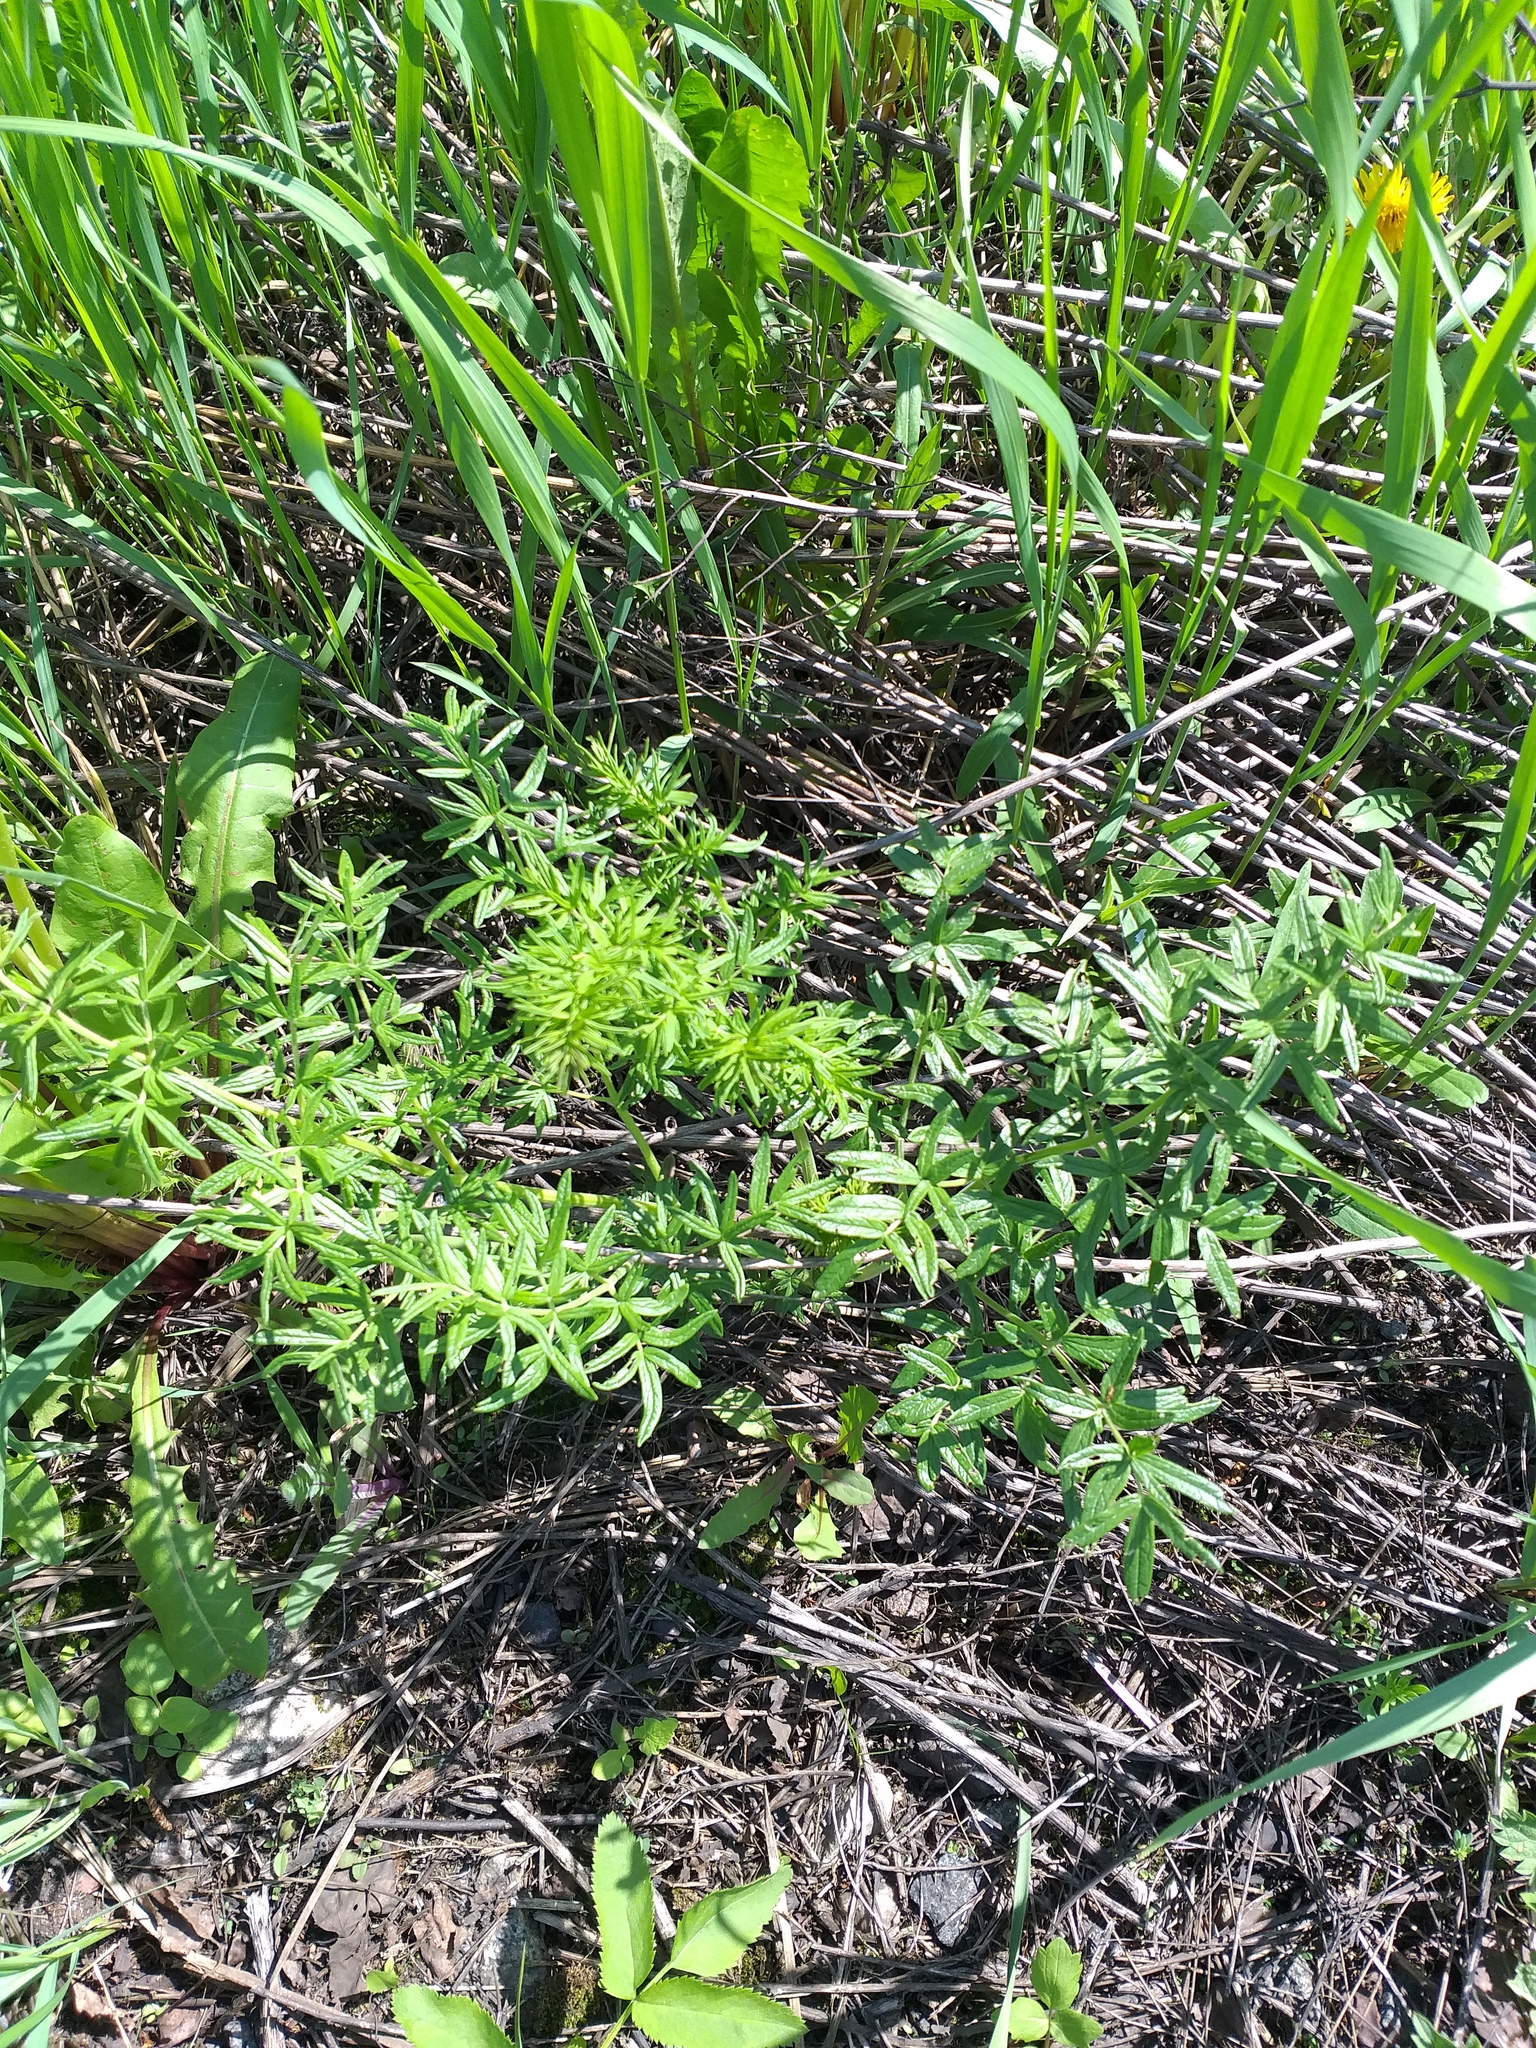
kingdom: Plantae
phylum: Tracheophyta
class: Magnoliopsida
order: Ranunculales
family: Ranunculaceae
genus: Thalictrum
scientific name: Thalictrum lucidum
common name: Shining meadow-rue
